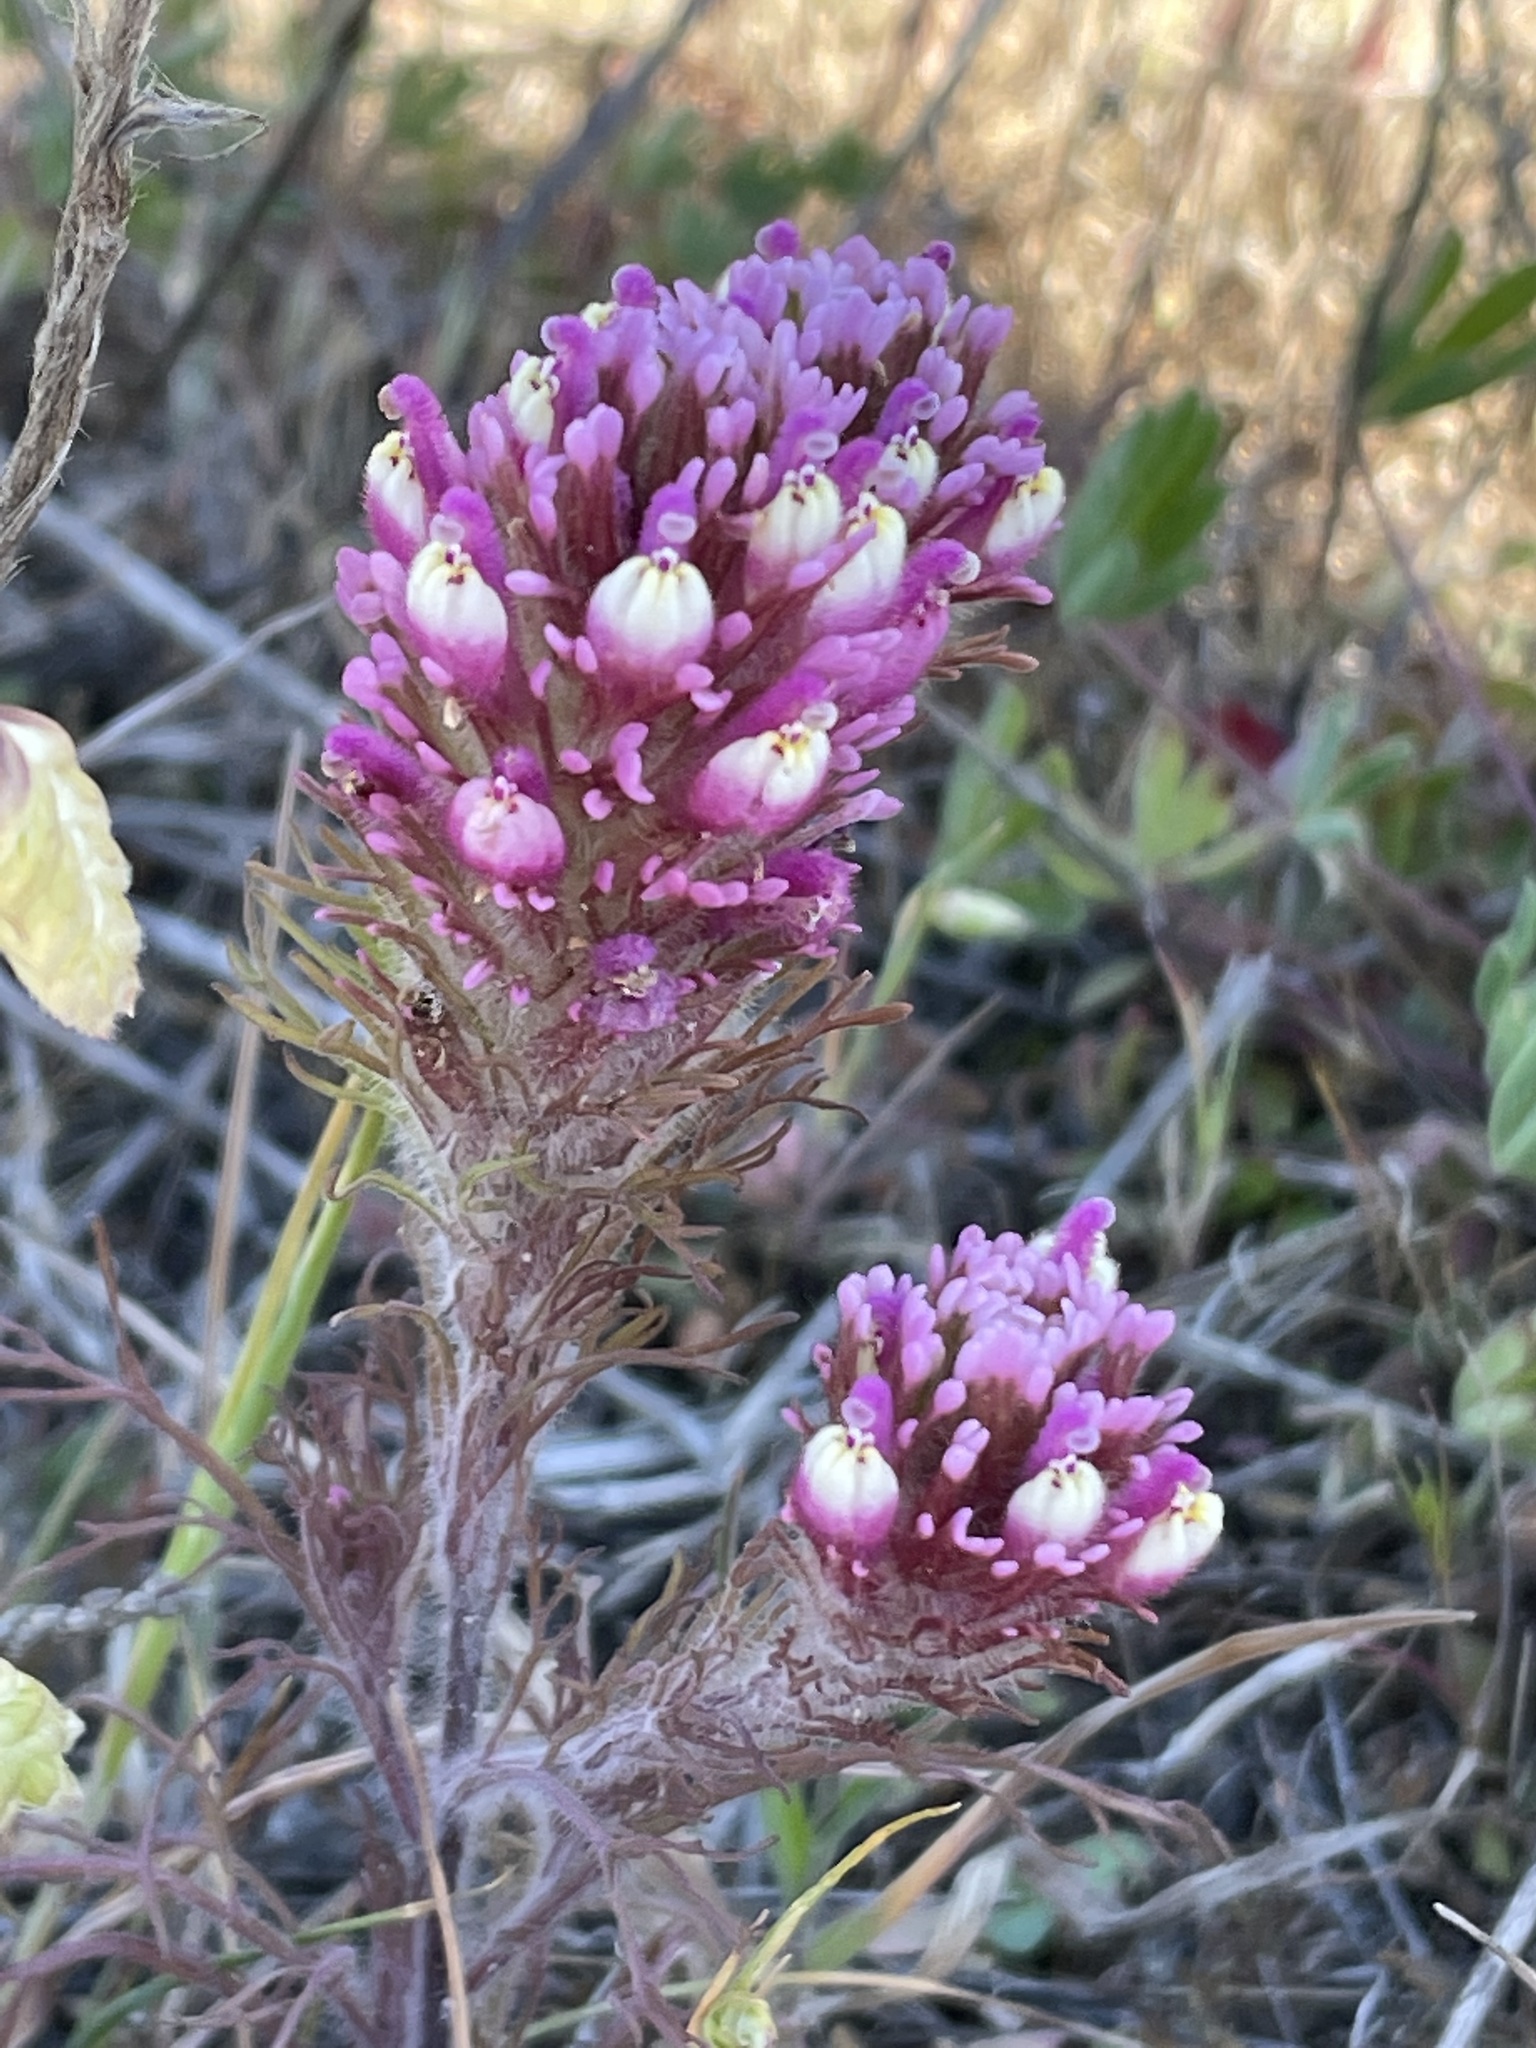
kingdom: Plantae
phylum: Tracheophyta
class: Magnoliopsida
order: Lamiales
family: Orobanchaceae
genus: Castilleja
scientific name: Castilleja exserta
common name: Purple owl-clover
